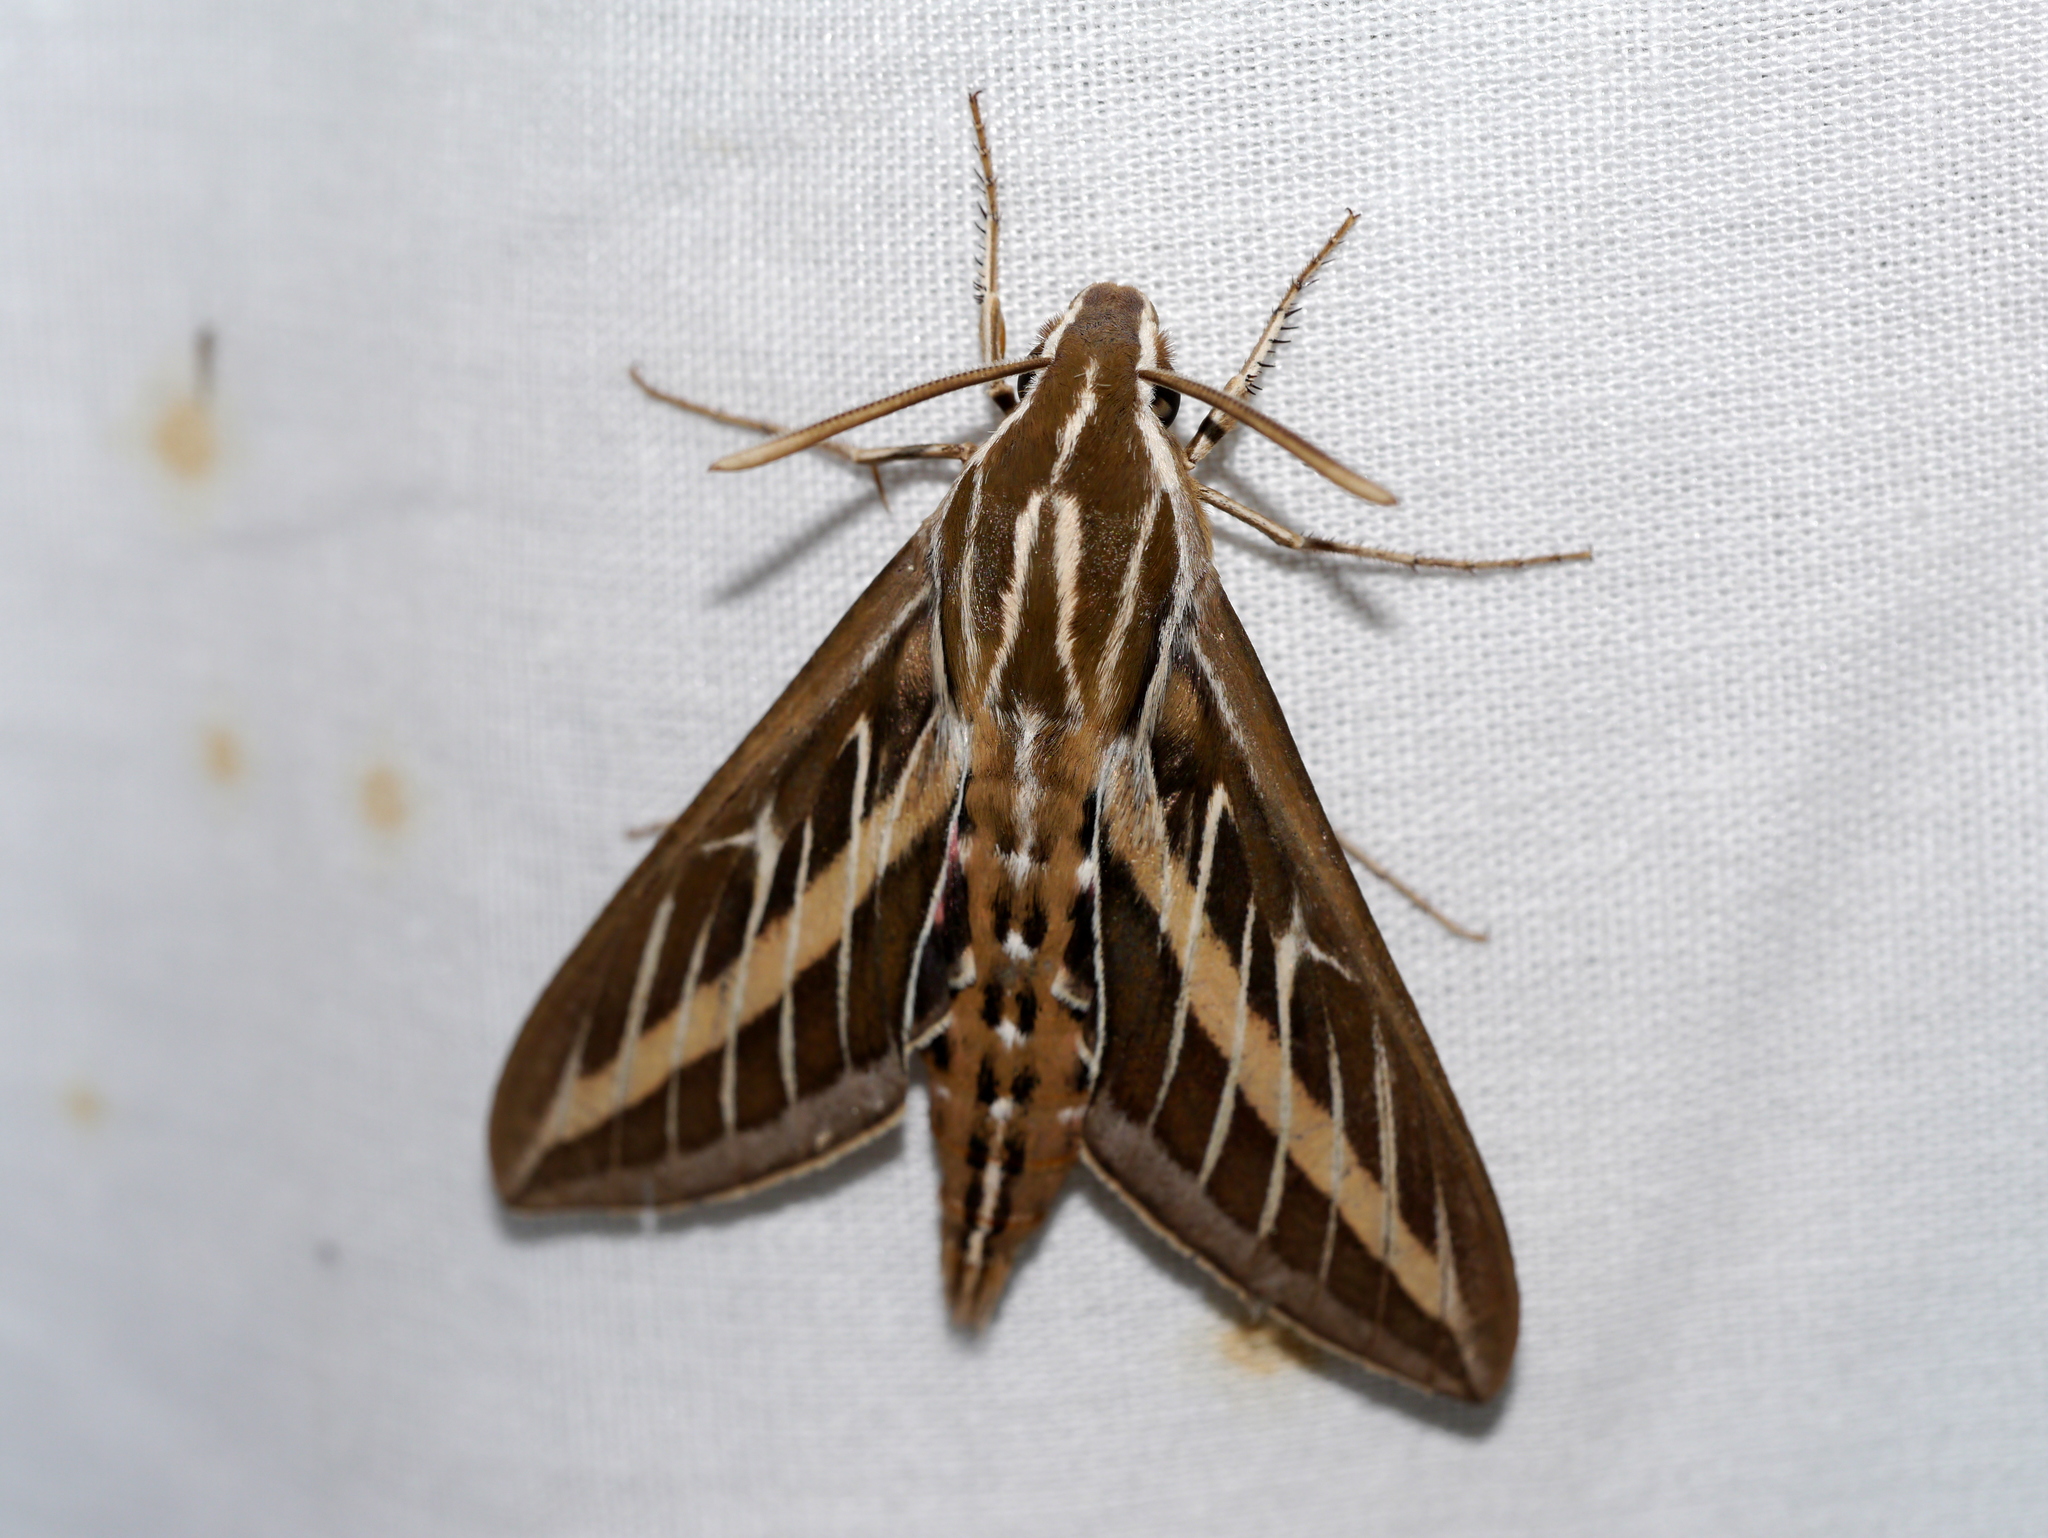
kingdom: Animalia
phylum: Arthropoda
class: Insecta
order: Lepidoptera
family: Sphingidae
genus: Hyles
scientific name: Hyles lineata
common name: White-lined sphinx
